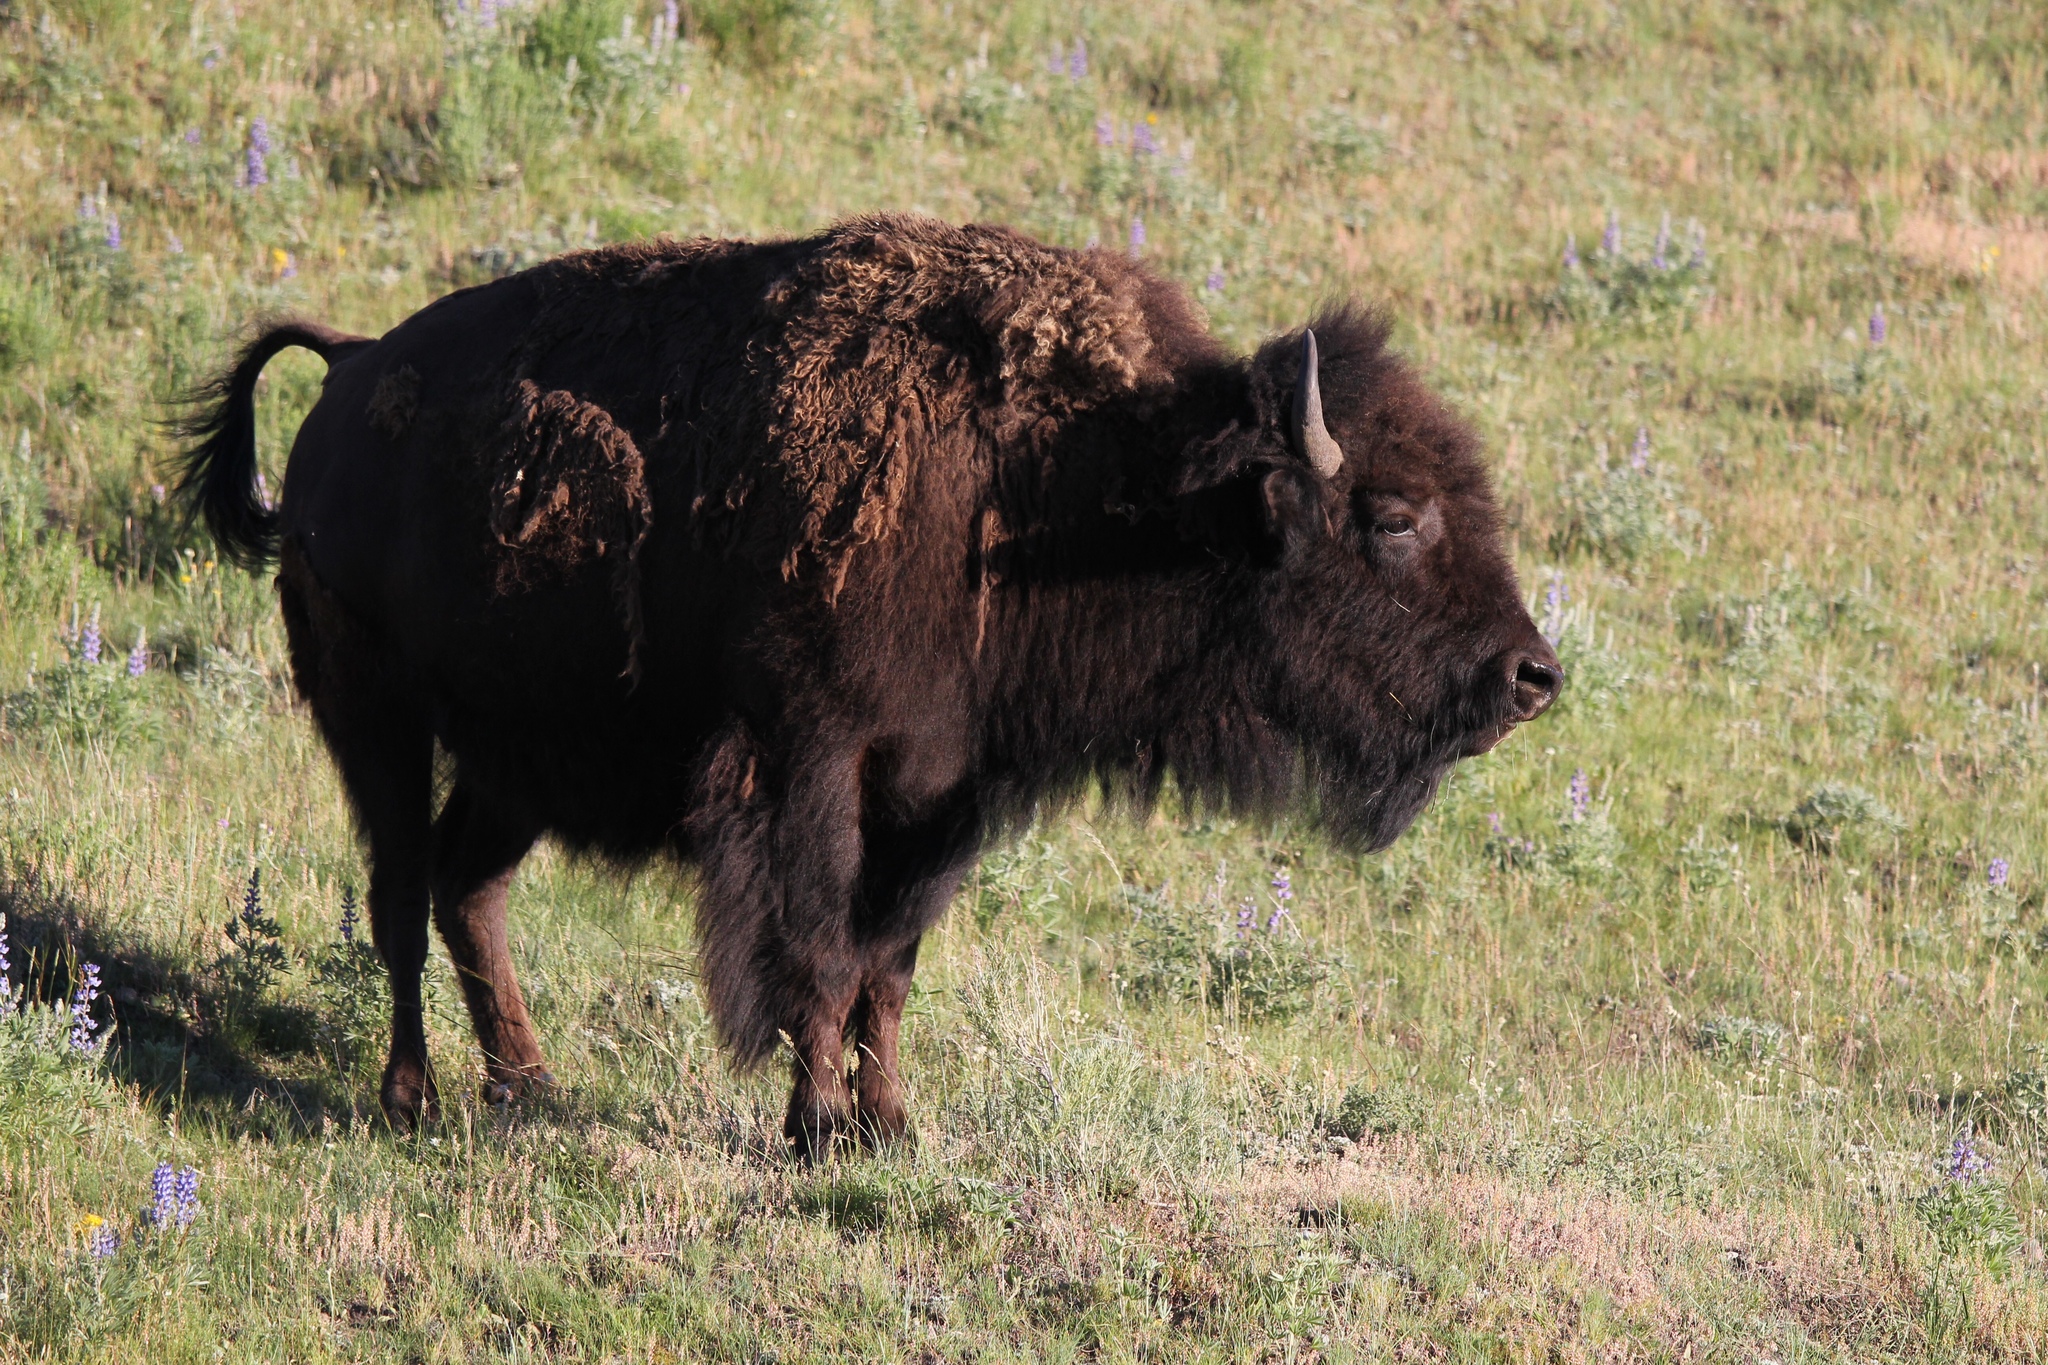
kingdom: Animalia
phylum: Chordata
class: Mammalia
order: Artiodactyla
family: Bovidae
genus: Bison
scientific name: Bison bison
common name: American bison
